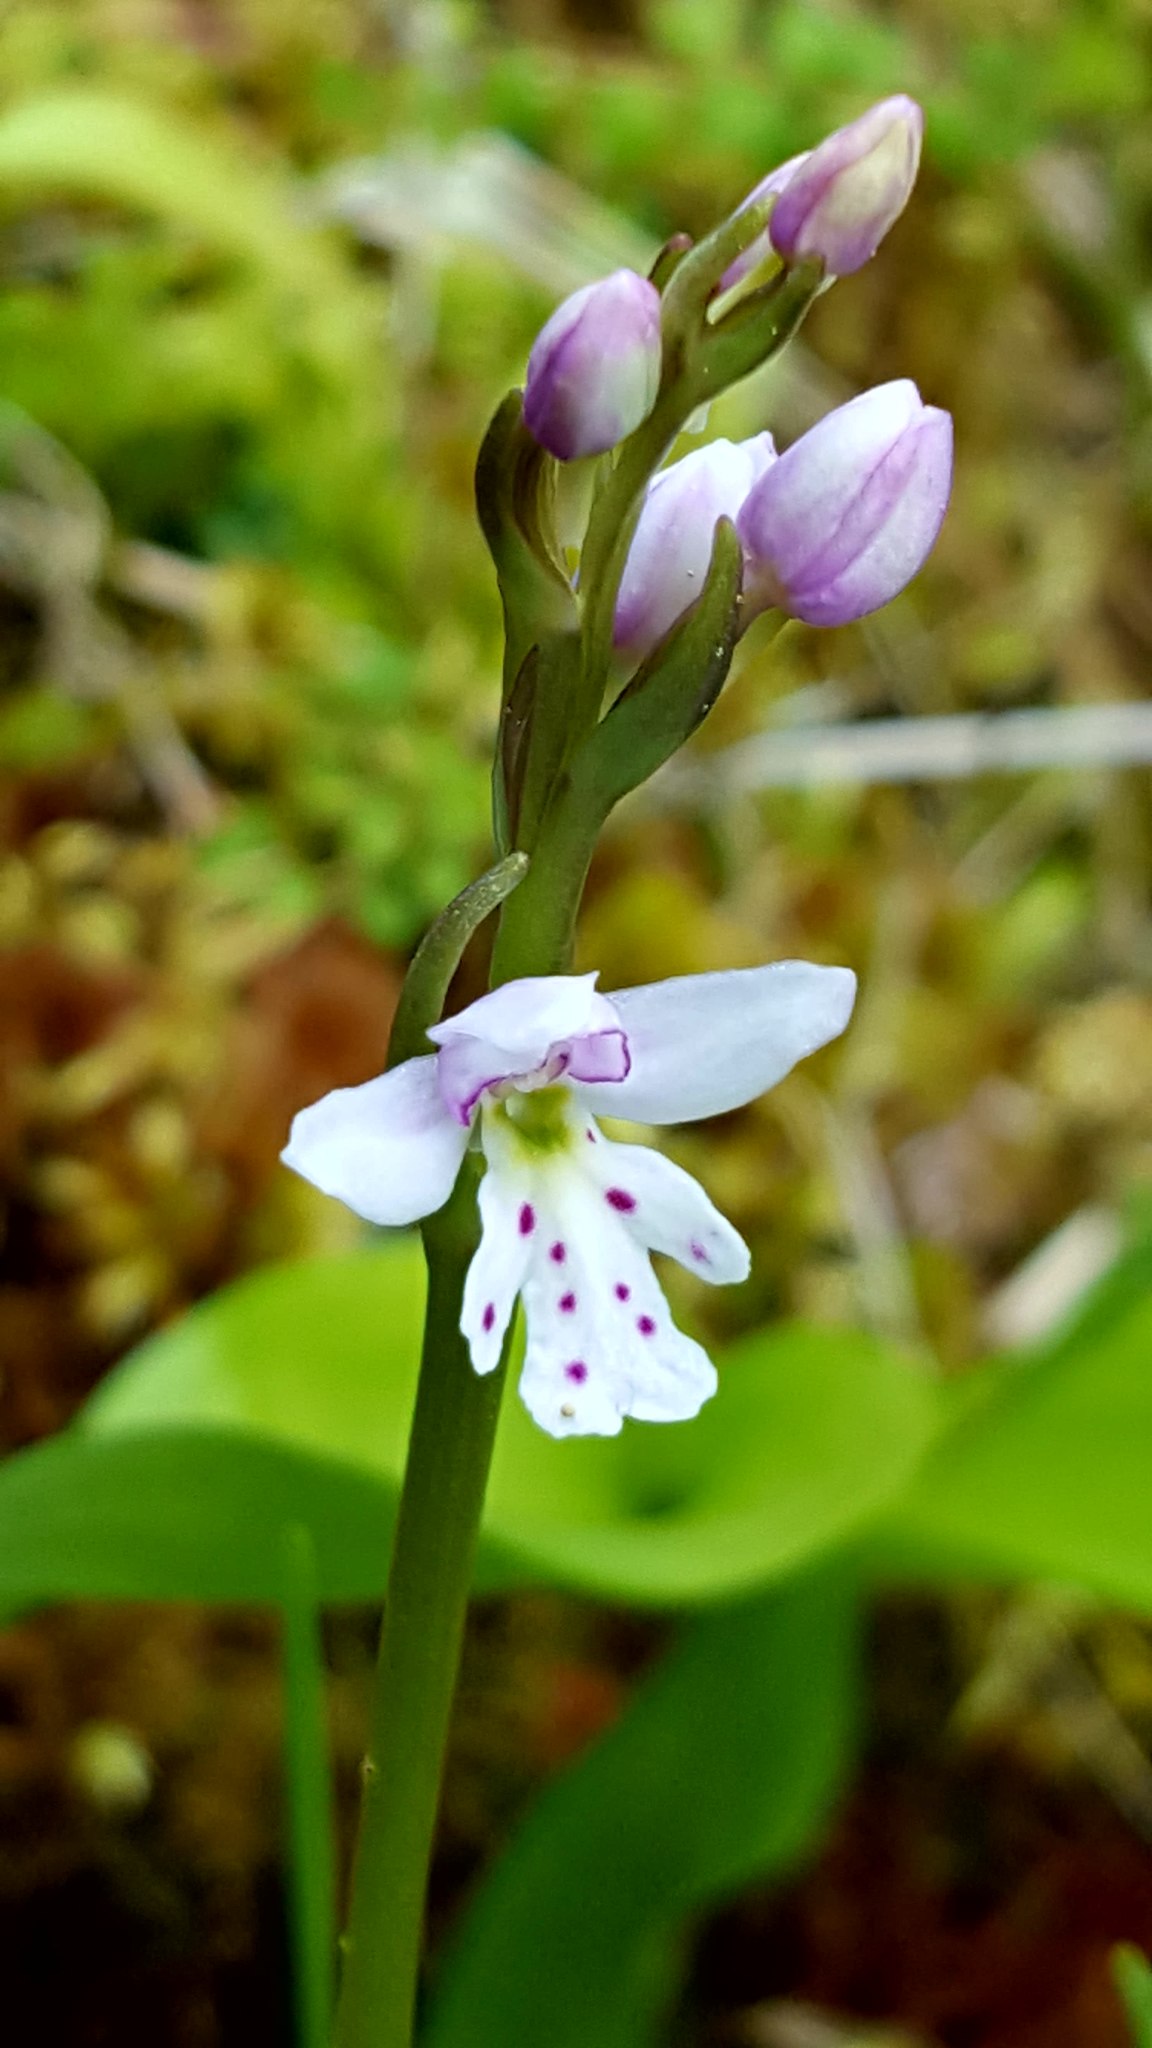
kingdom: Plantae
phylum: Tracheophyta
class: Liliopsida
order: Asparagales
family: Orchidaceae
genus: Galearis
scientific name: Galearis rotundifolia
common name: One-leaved orchis
